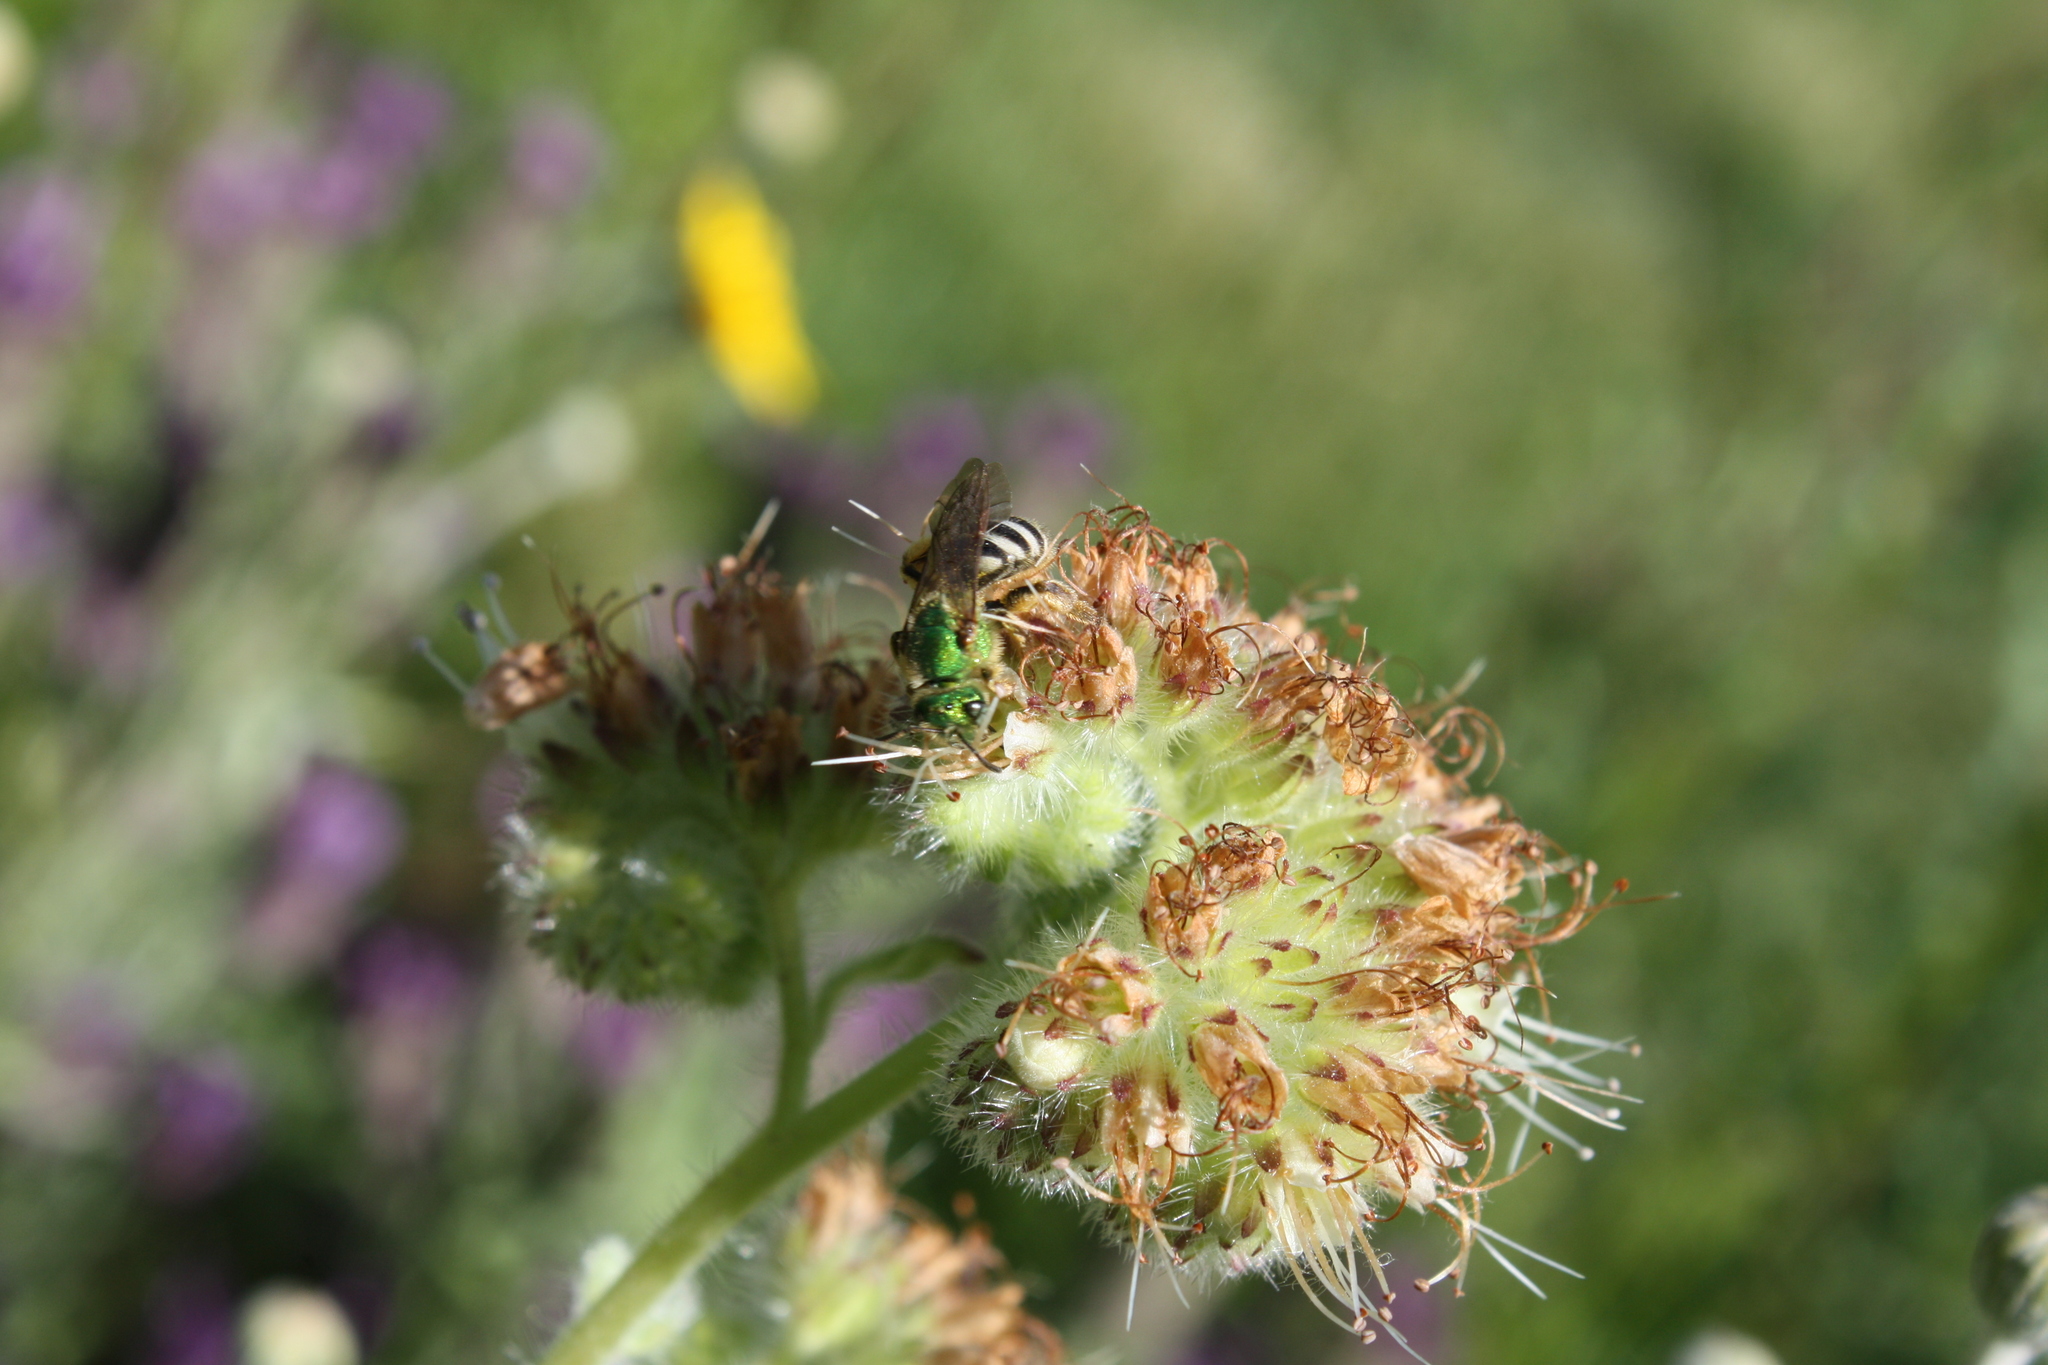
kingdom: Animalia
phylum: Arthropoda
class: Insecta
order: Hymenoptera
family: Halictidae
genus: Agapostemon
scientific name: Agapostemon virescens
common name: Bicolored striped sweat bee
